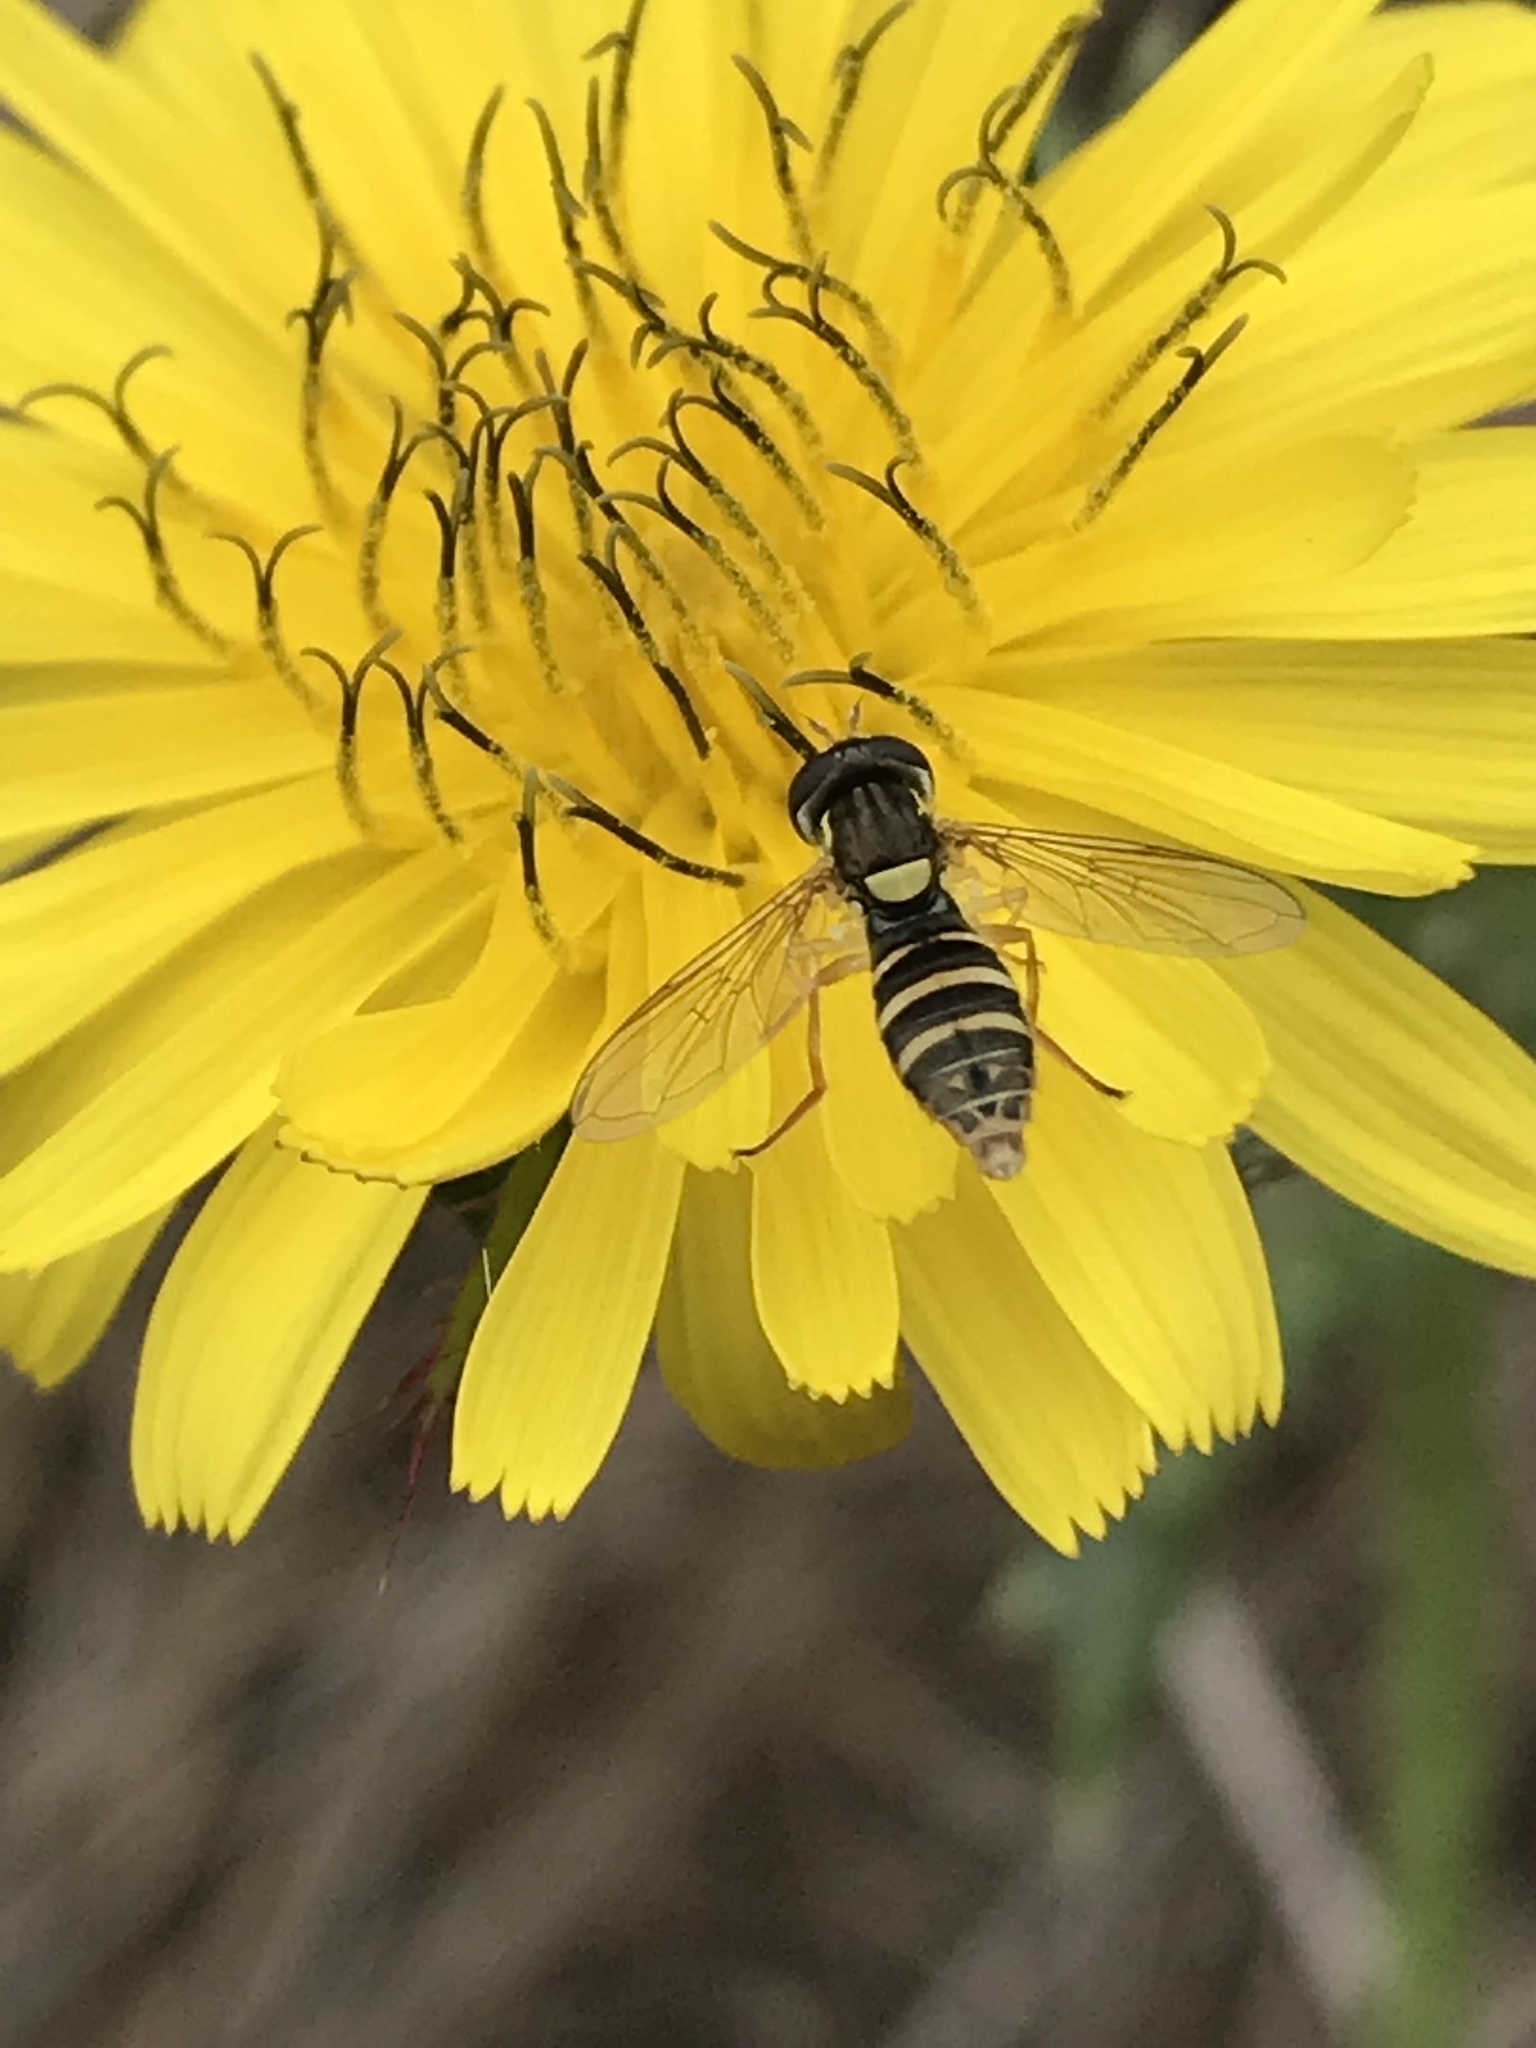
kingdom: Animalia
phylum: Arthropoda
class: Insecta
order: Diptera
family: Syrphidae
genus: Sphaerophoria
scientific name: Sphaerophoria
